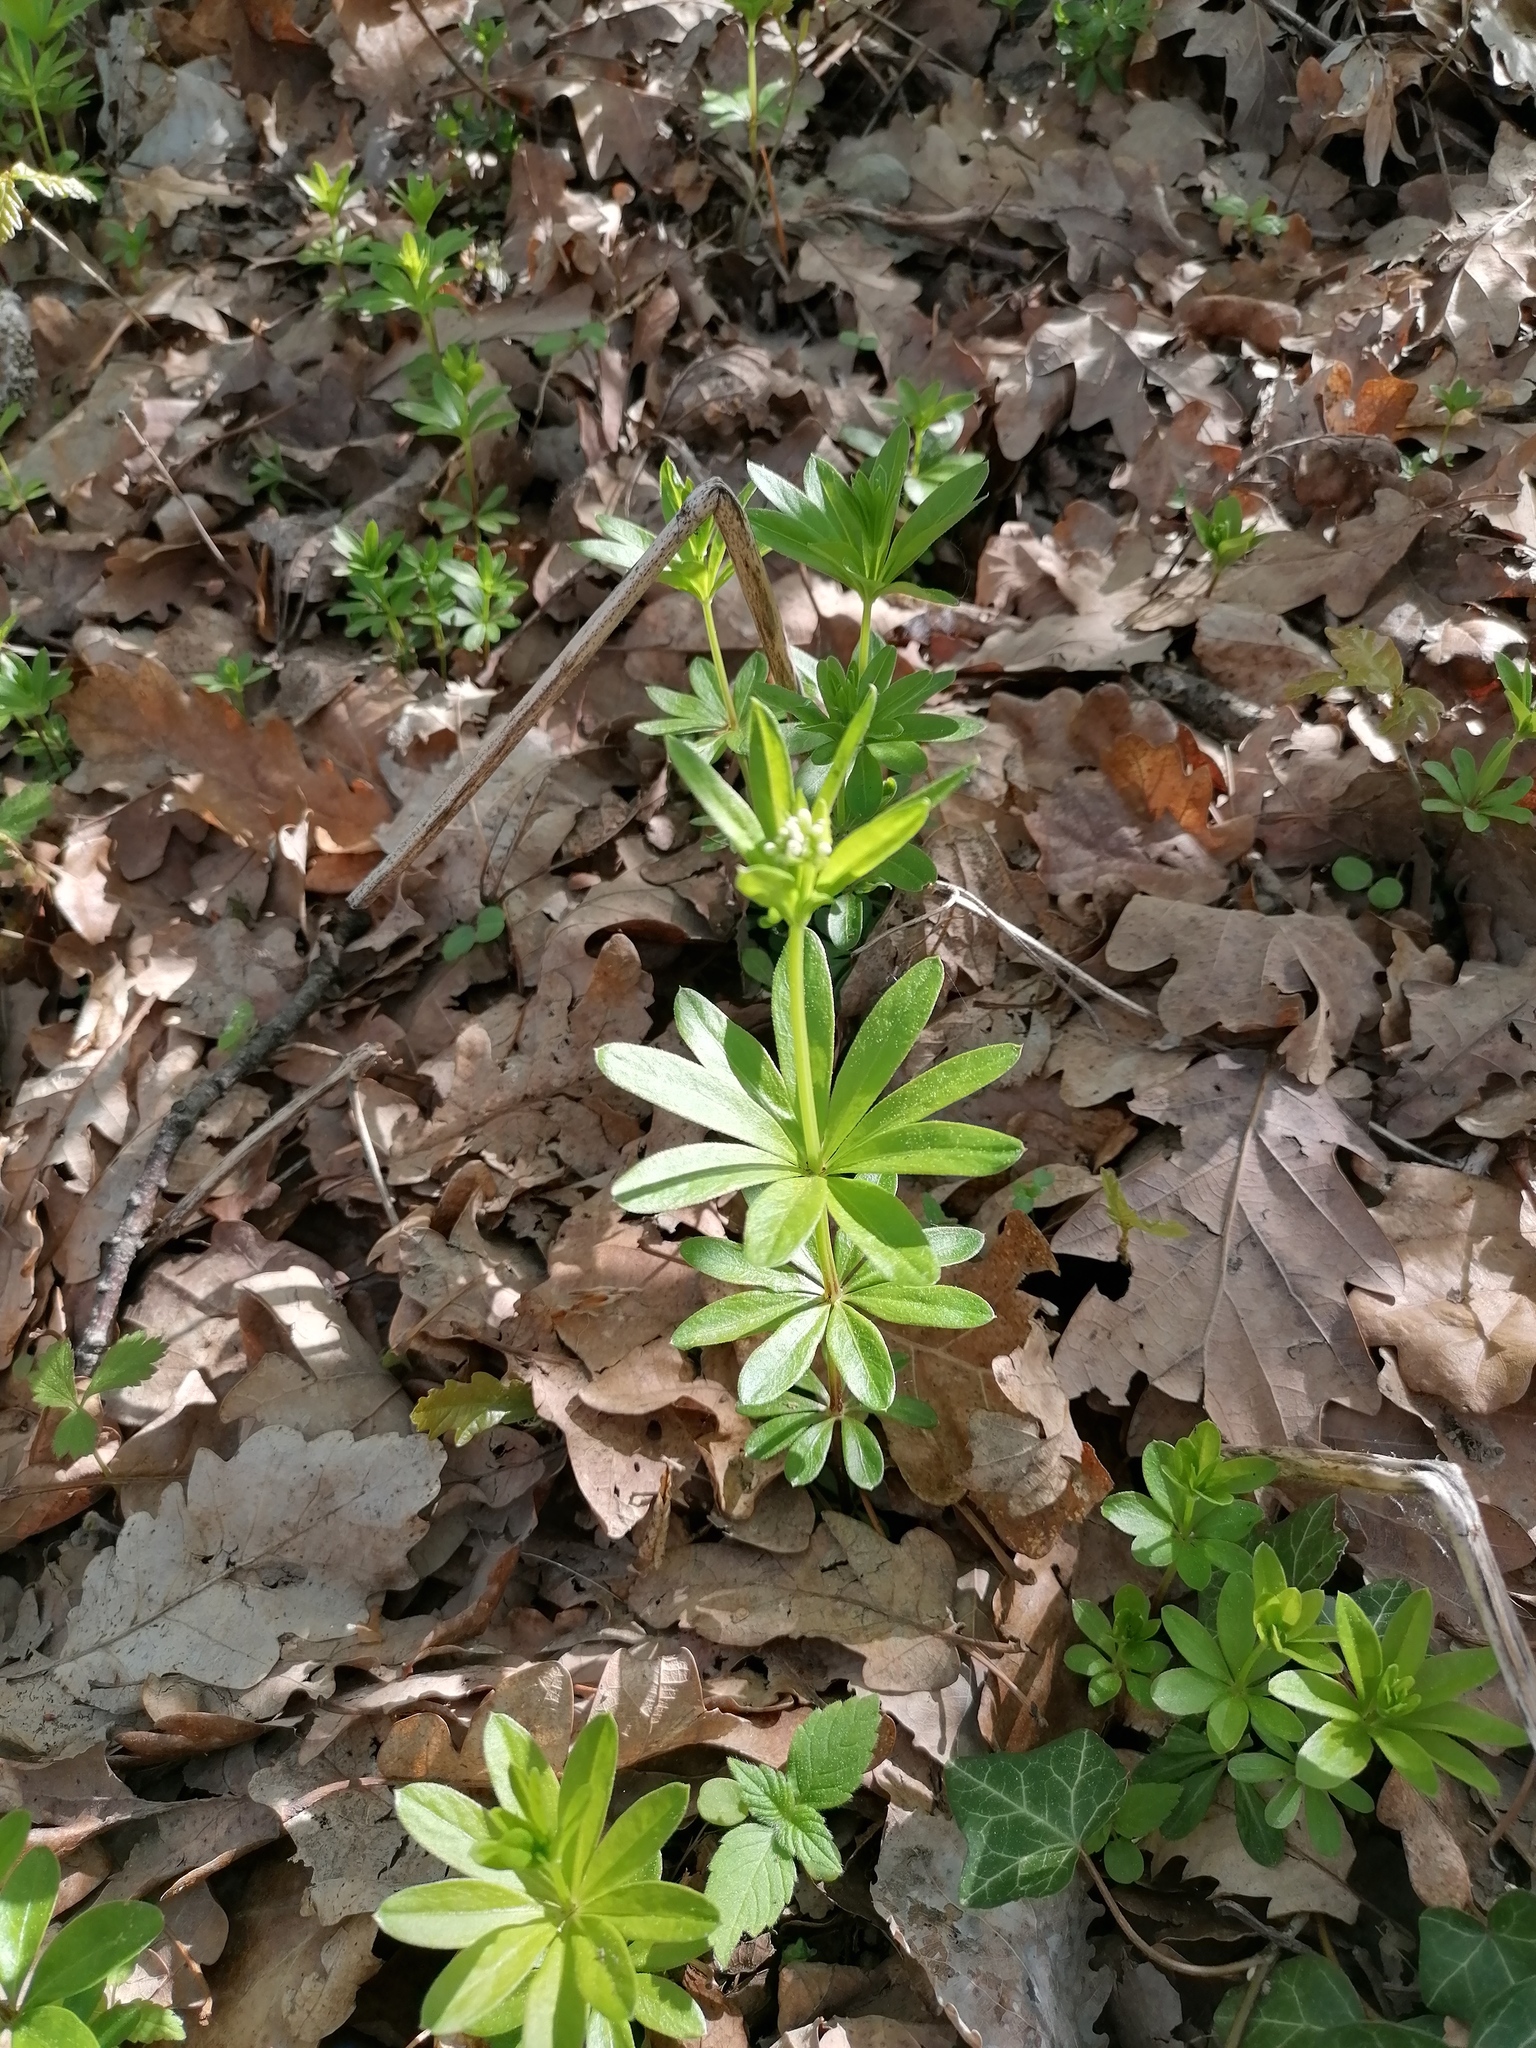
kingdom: Plantae
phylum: Tracheophyta
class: Magnoliopsida
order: Gentianales
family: Rubiaceae
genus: Galium
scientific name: Galium odoratum
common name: Sweet woodruff
